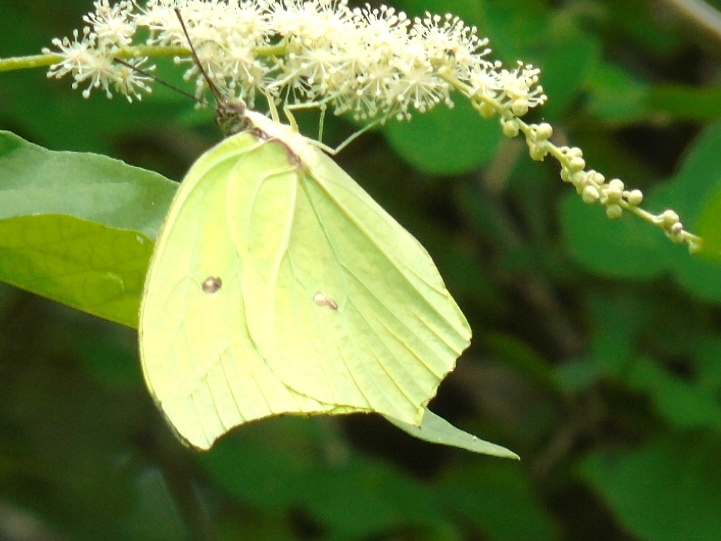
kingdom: Animalia
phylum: Arthropoda
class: Insecta
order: Lepidoptera
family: Pieridae
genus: Anteos
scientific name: Anteos maerula
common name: Angled sulphur
